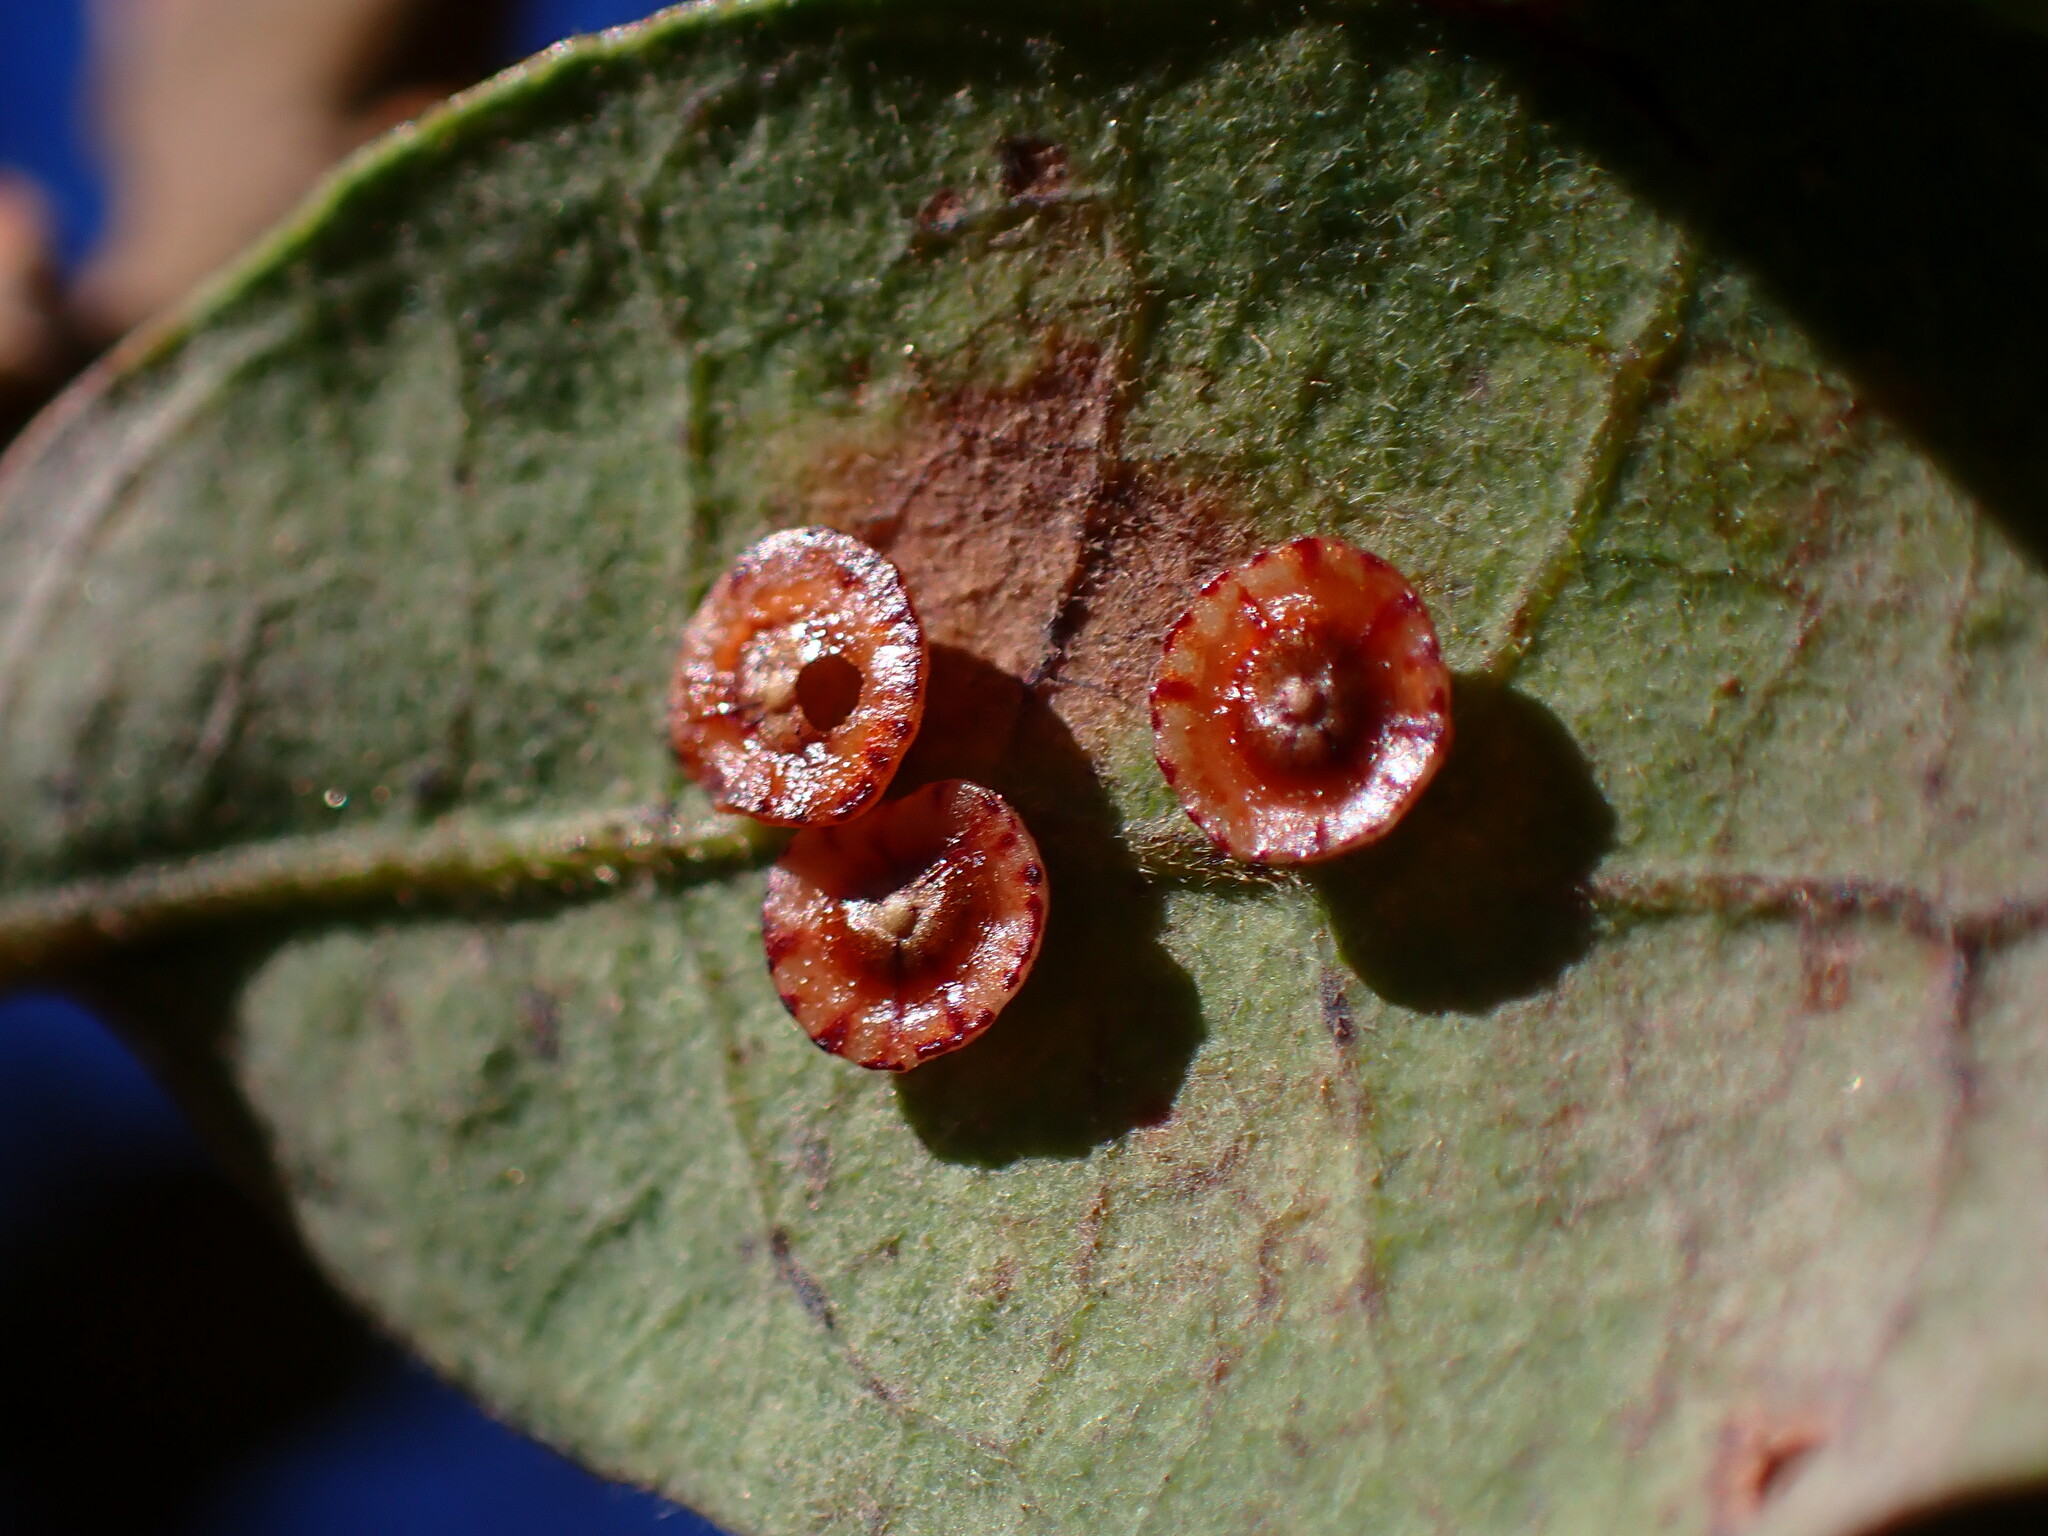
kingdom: Animalia
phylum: Arthropoda
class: Insecta
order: Hymenoptera
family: Cynipidae
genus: Andricus
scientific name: Andricus
